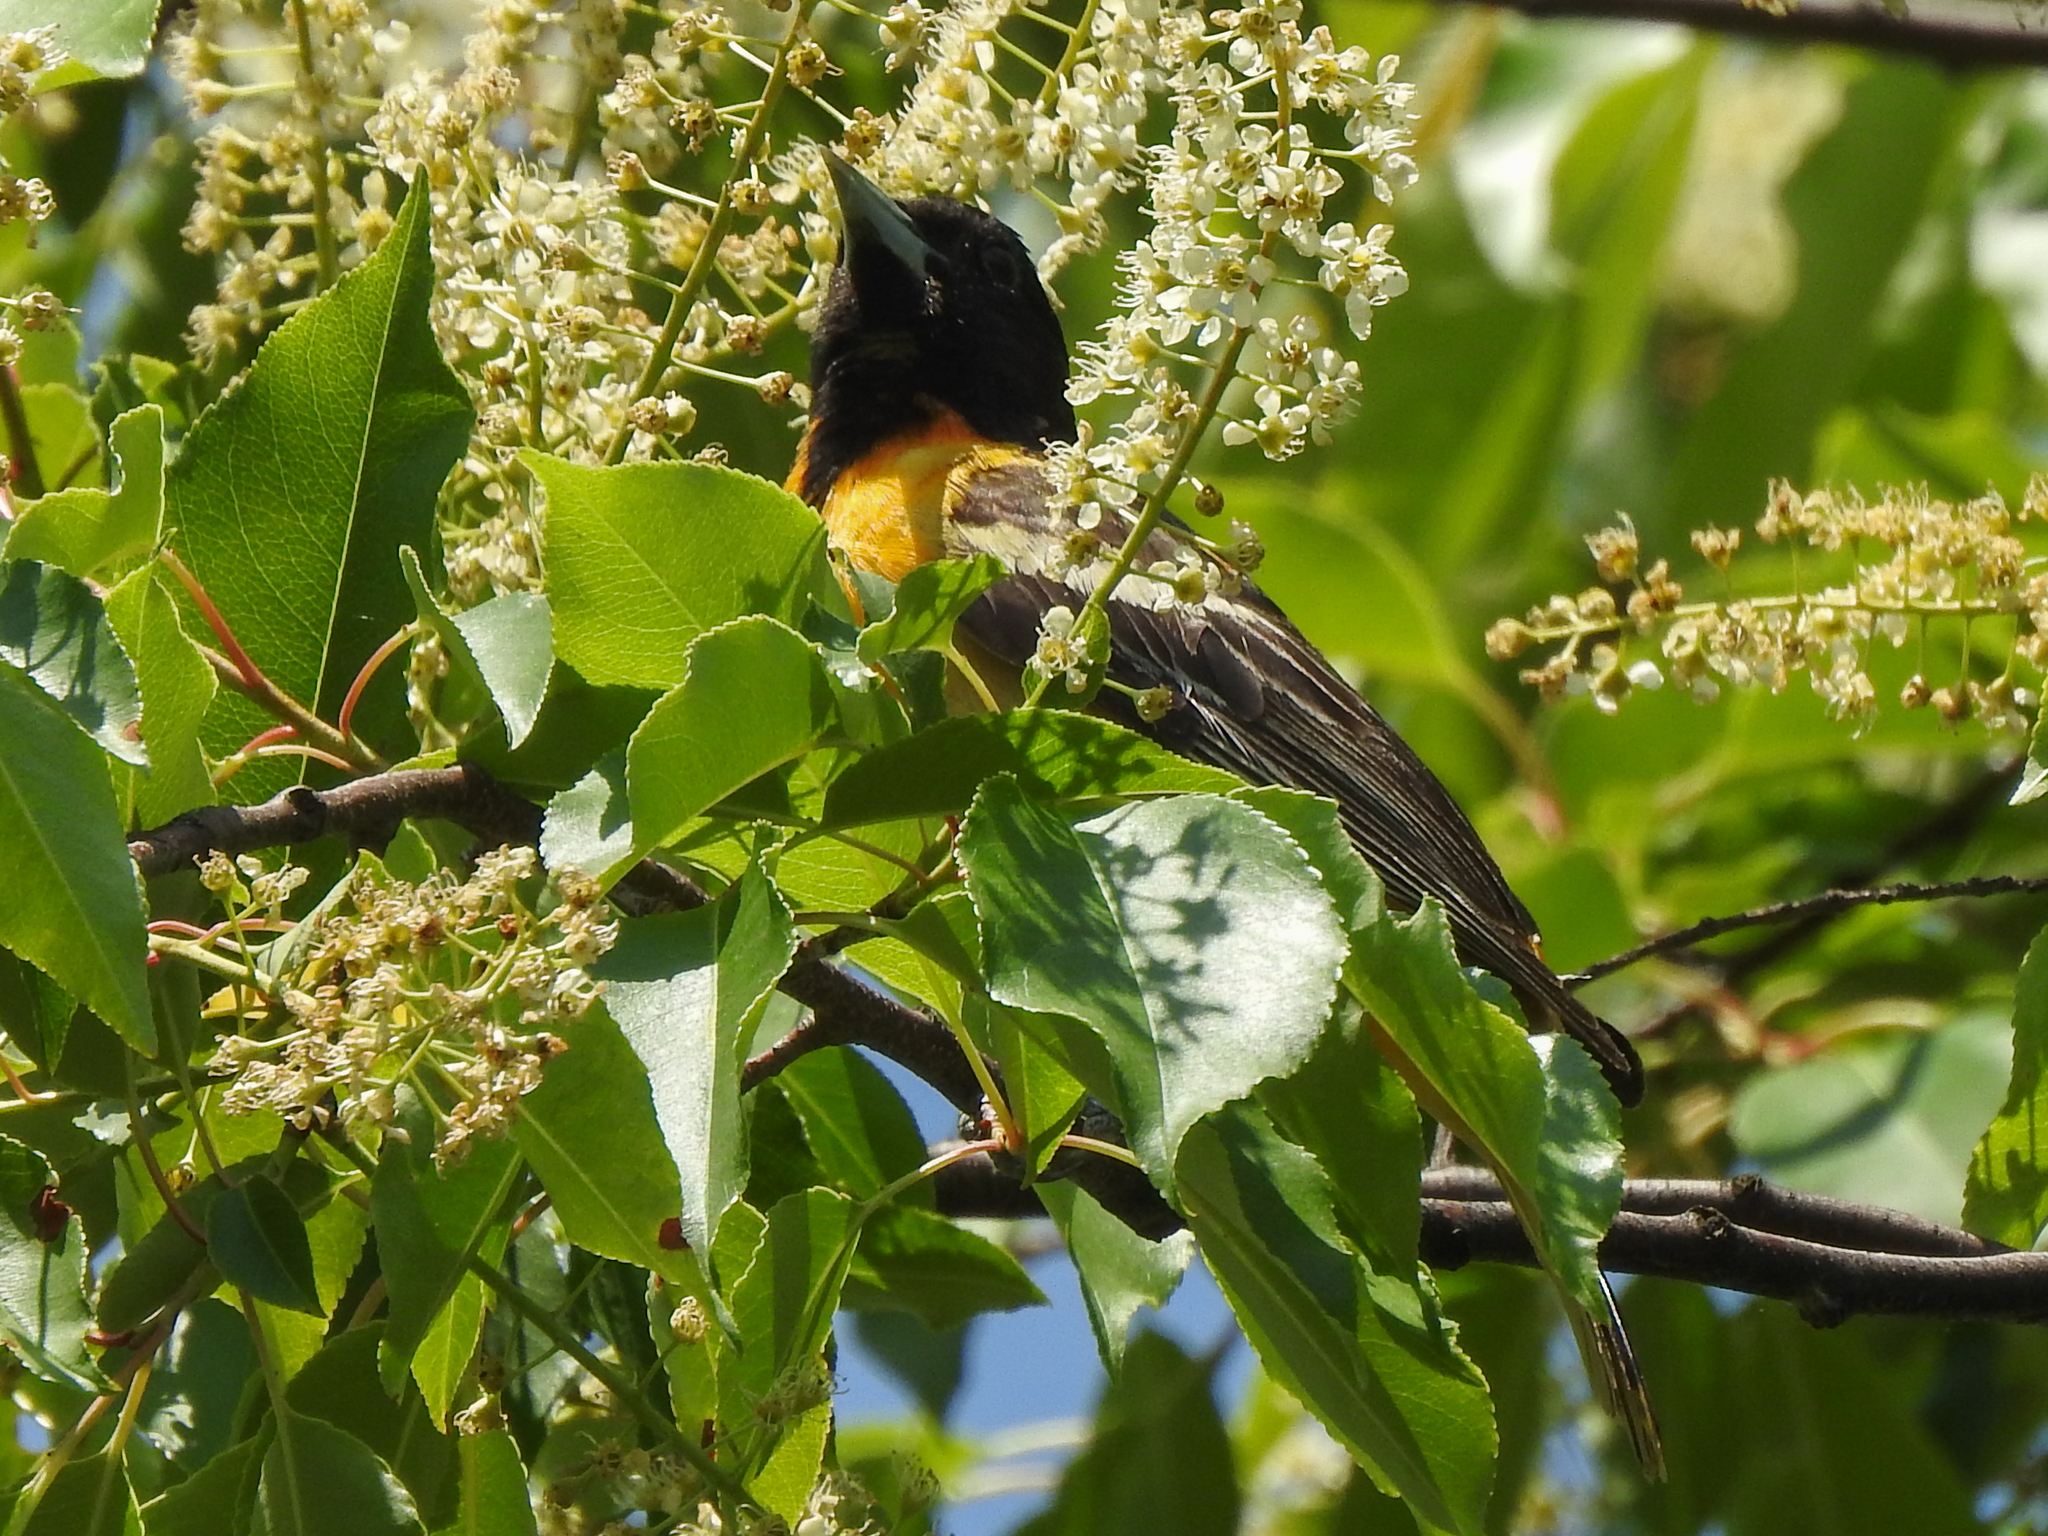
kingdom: Animalia
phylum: Chordata
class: Aves
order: Passeriformes
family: Icteridae
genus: Icterus
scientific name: Icterus galbula
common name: Baltimore oriole
